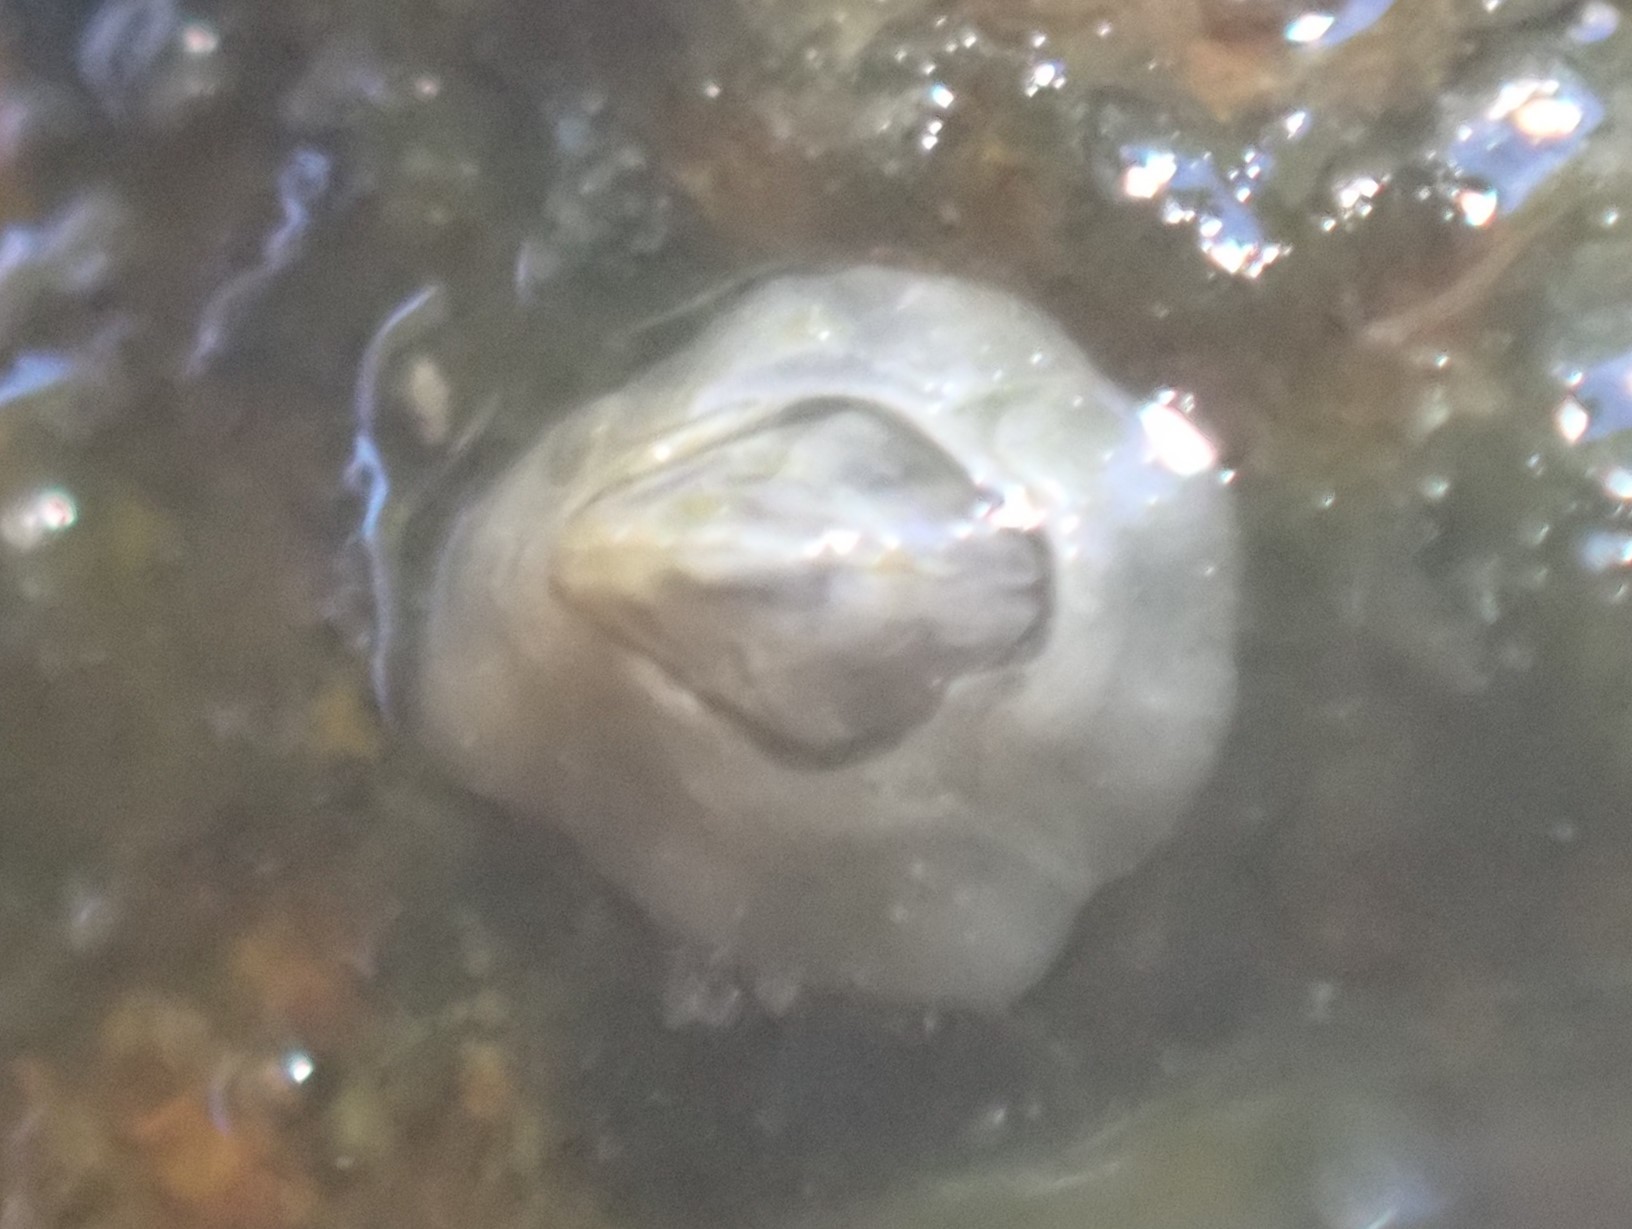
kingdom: Animalia
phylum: Arthropoda
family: Elminiidae
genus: Austrominius
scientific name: Austrominius modestus
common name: Australasian barnacle
